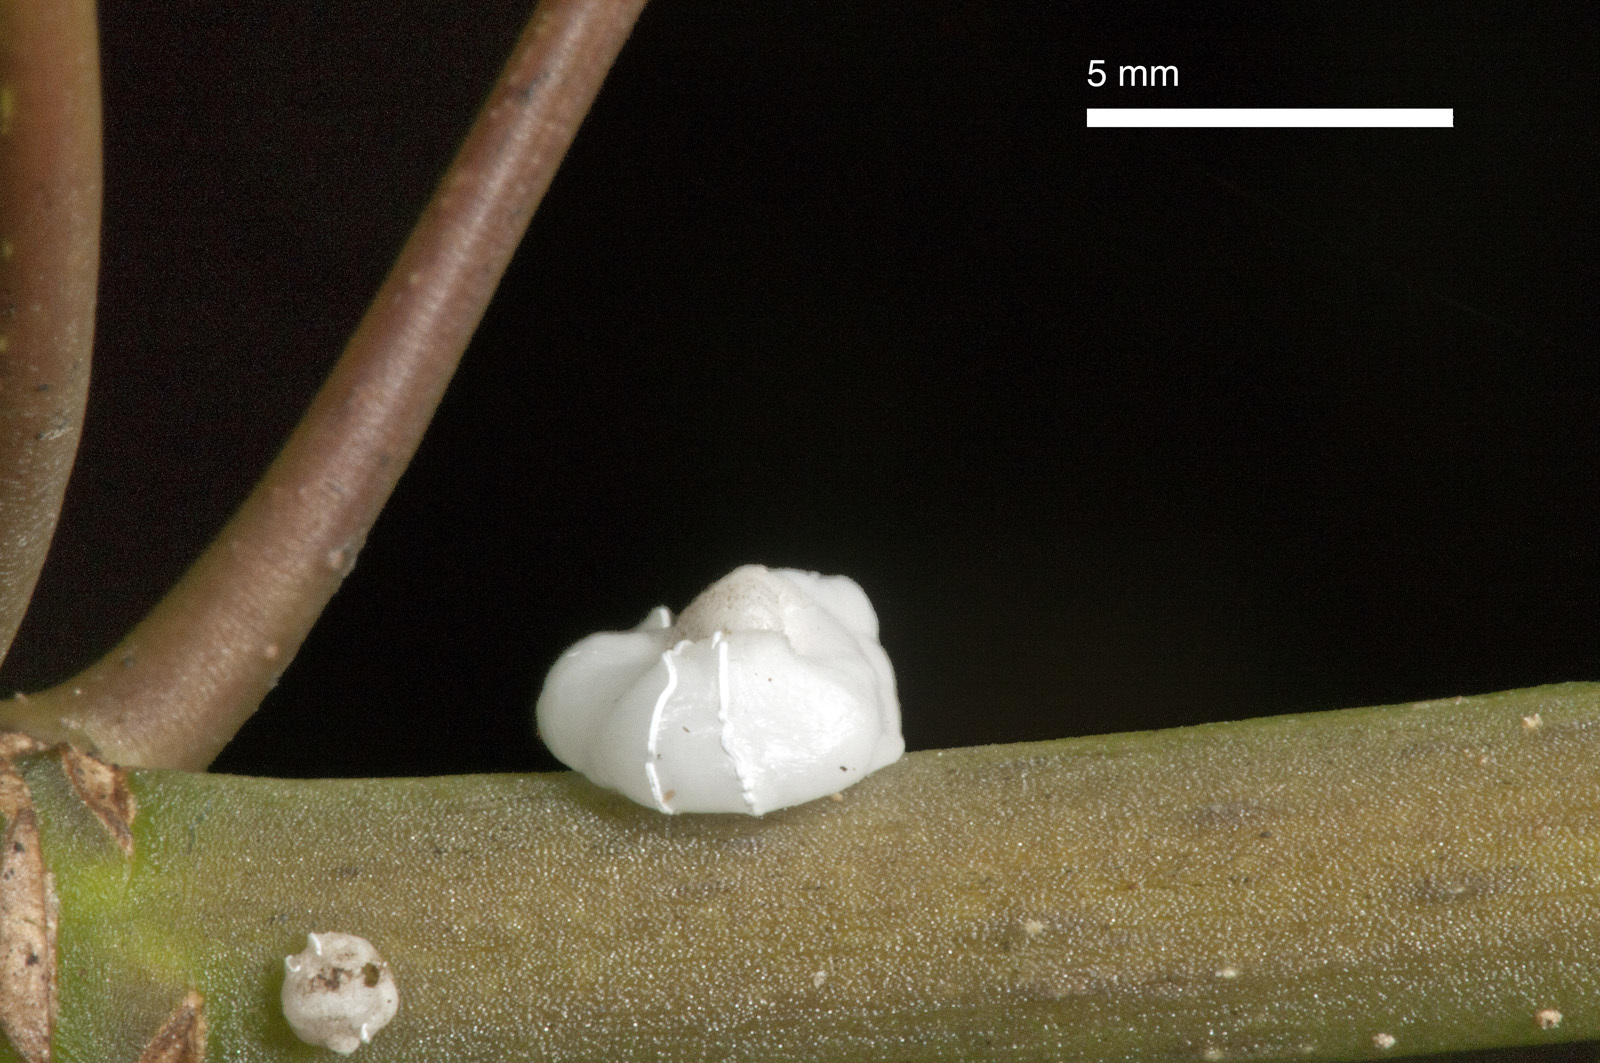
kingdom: Animalia
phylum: Arthropoda
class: Insecta
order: Hemiptera
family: Coccidae
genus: Ceroplastes
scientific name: Ceroplastes destructor
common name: Indian wax scale
